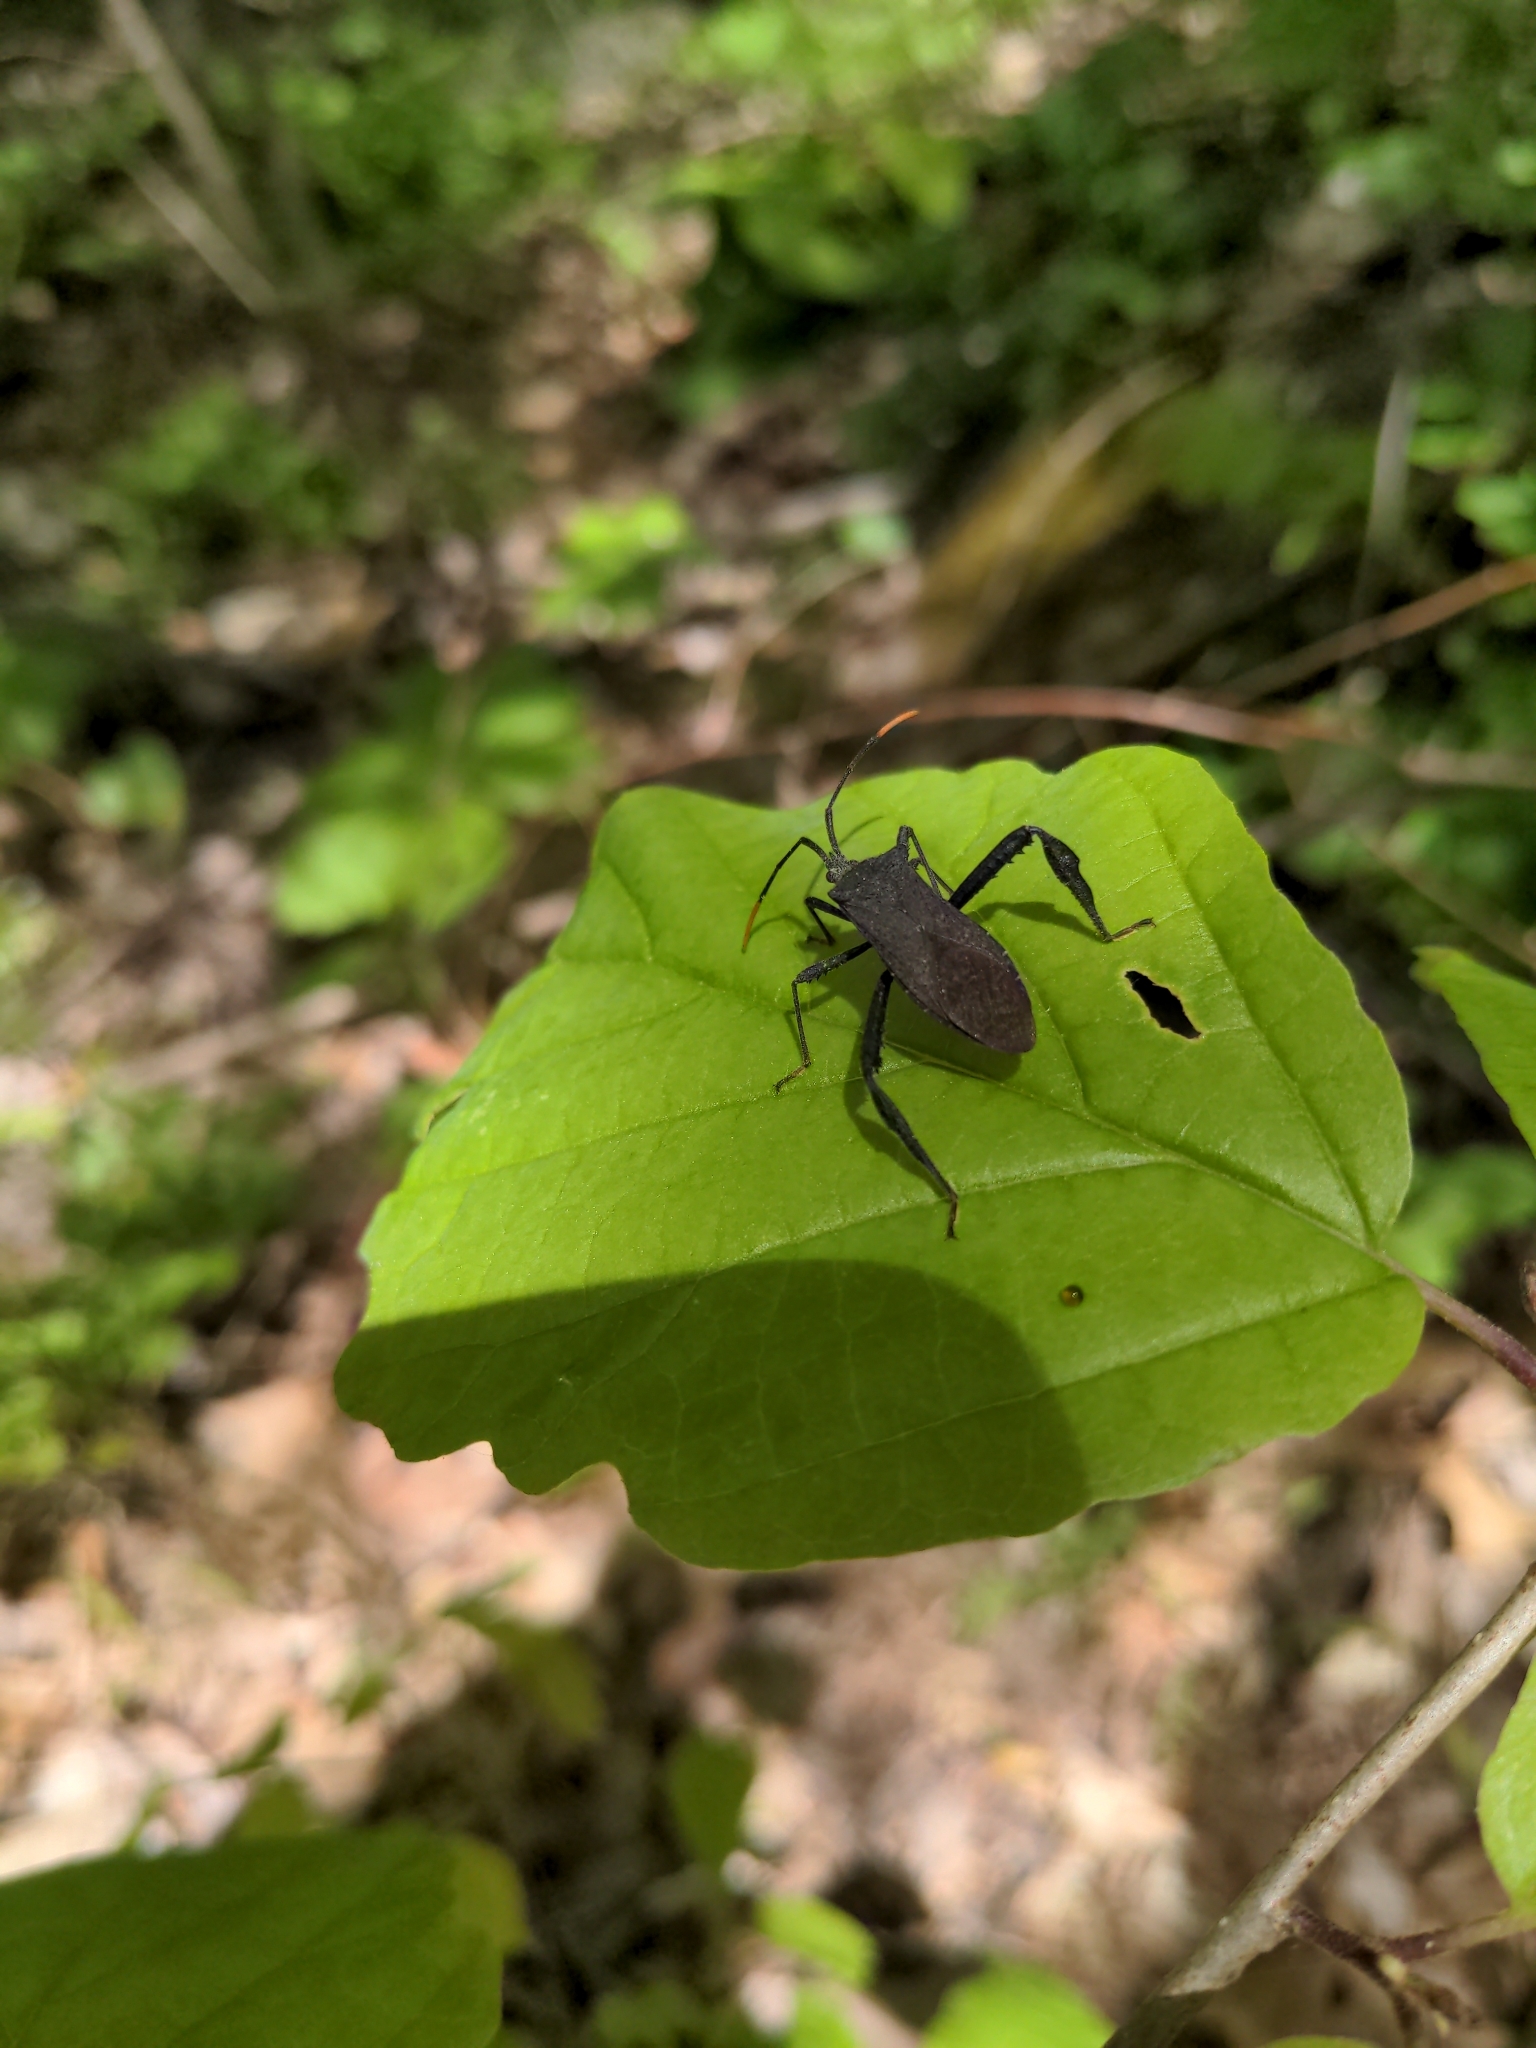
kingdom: Animalia
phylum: Arthropoda
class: Insecta
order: Hemiptera
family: Coreidae
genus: Acanthocephala
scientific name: Acanthocephala terminalis
